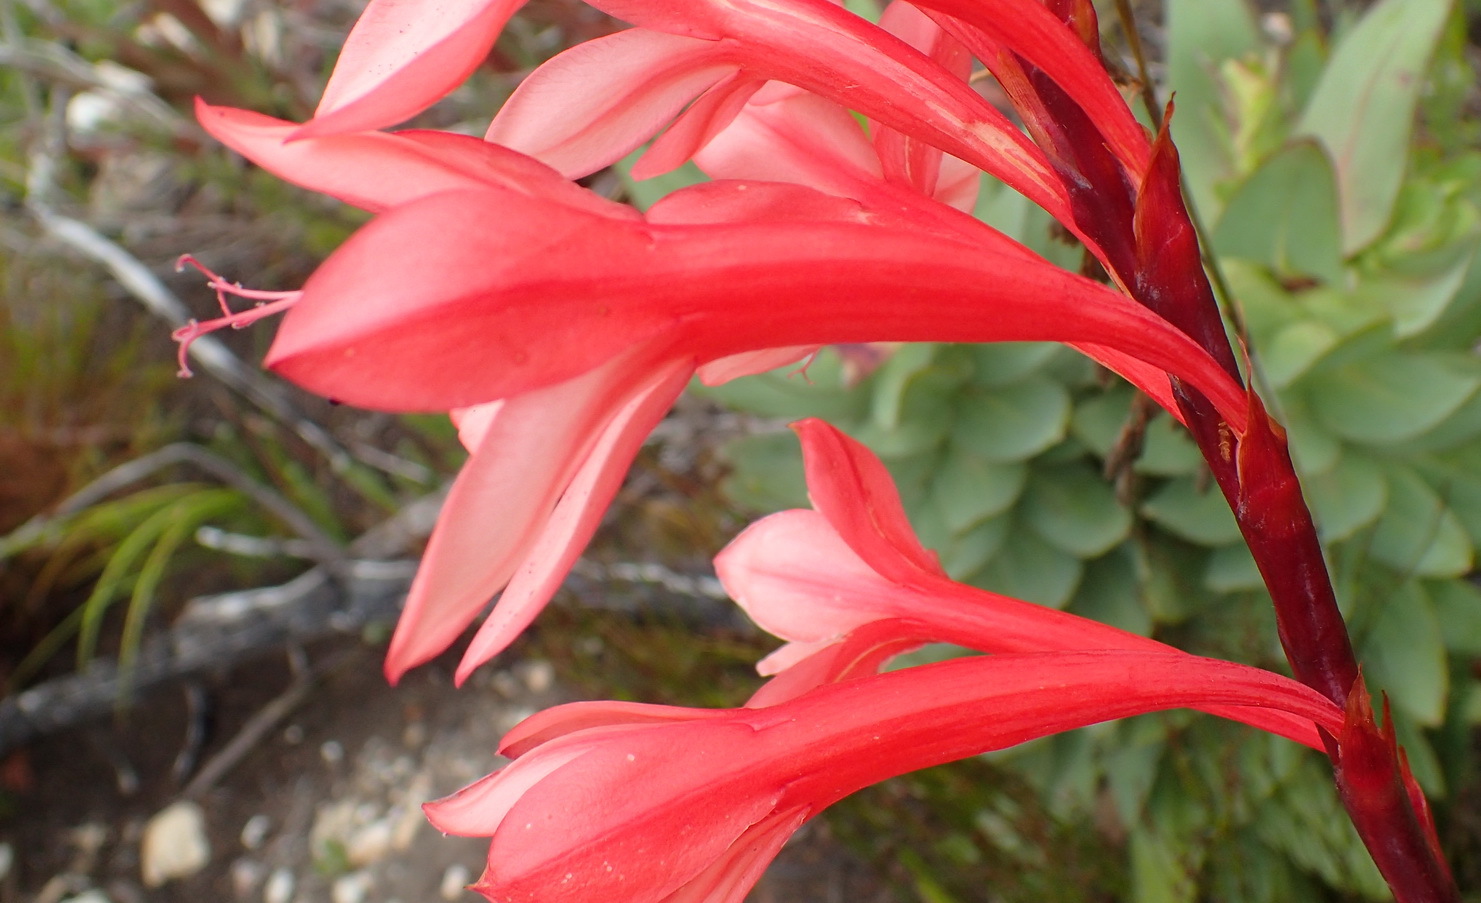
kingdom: Plantae
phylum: Tracheophyta
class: Liliopsida
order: Asparagales
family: Iridaceae
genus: Watsonia
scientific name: Watsonia fourcadei
